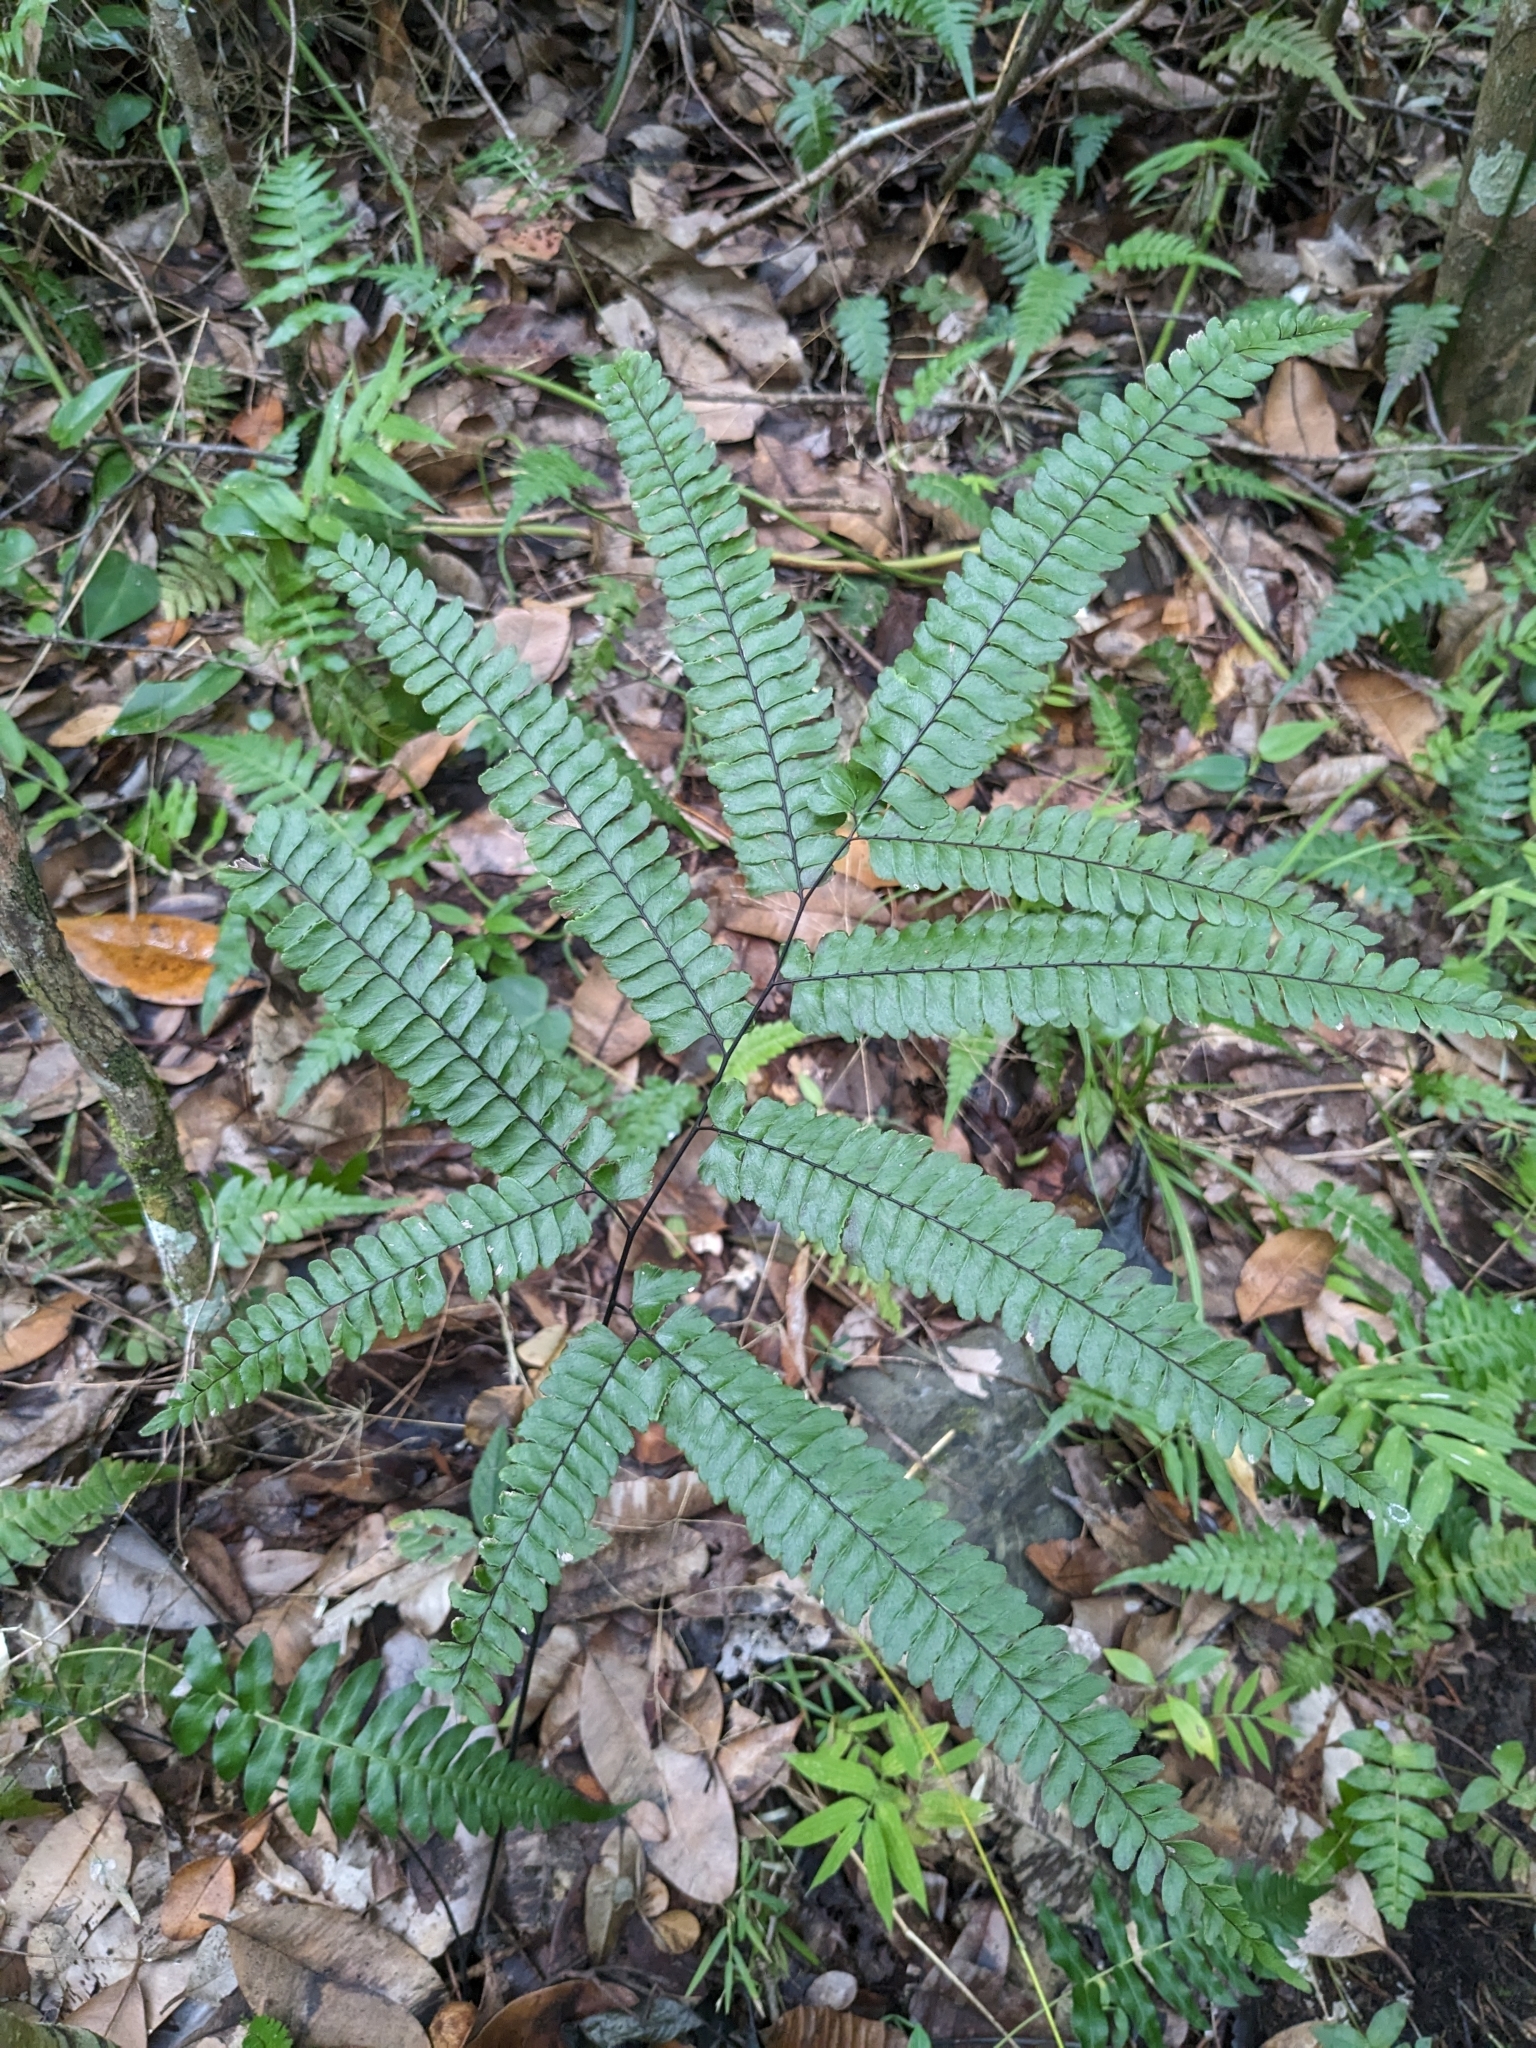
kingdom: Plantae
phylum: Tracheophyta
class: Polypodiopsida
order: Polypodiales
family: Pteridaceae
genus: Adiantum
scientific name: Adiantum pyramidale
